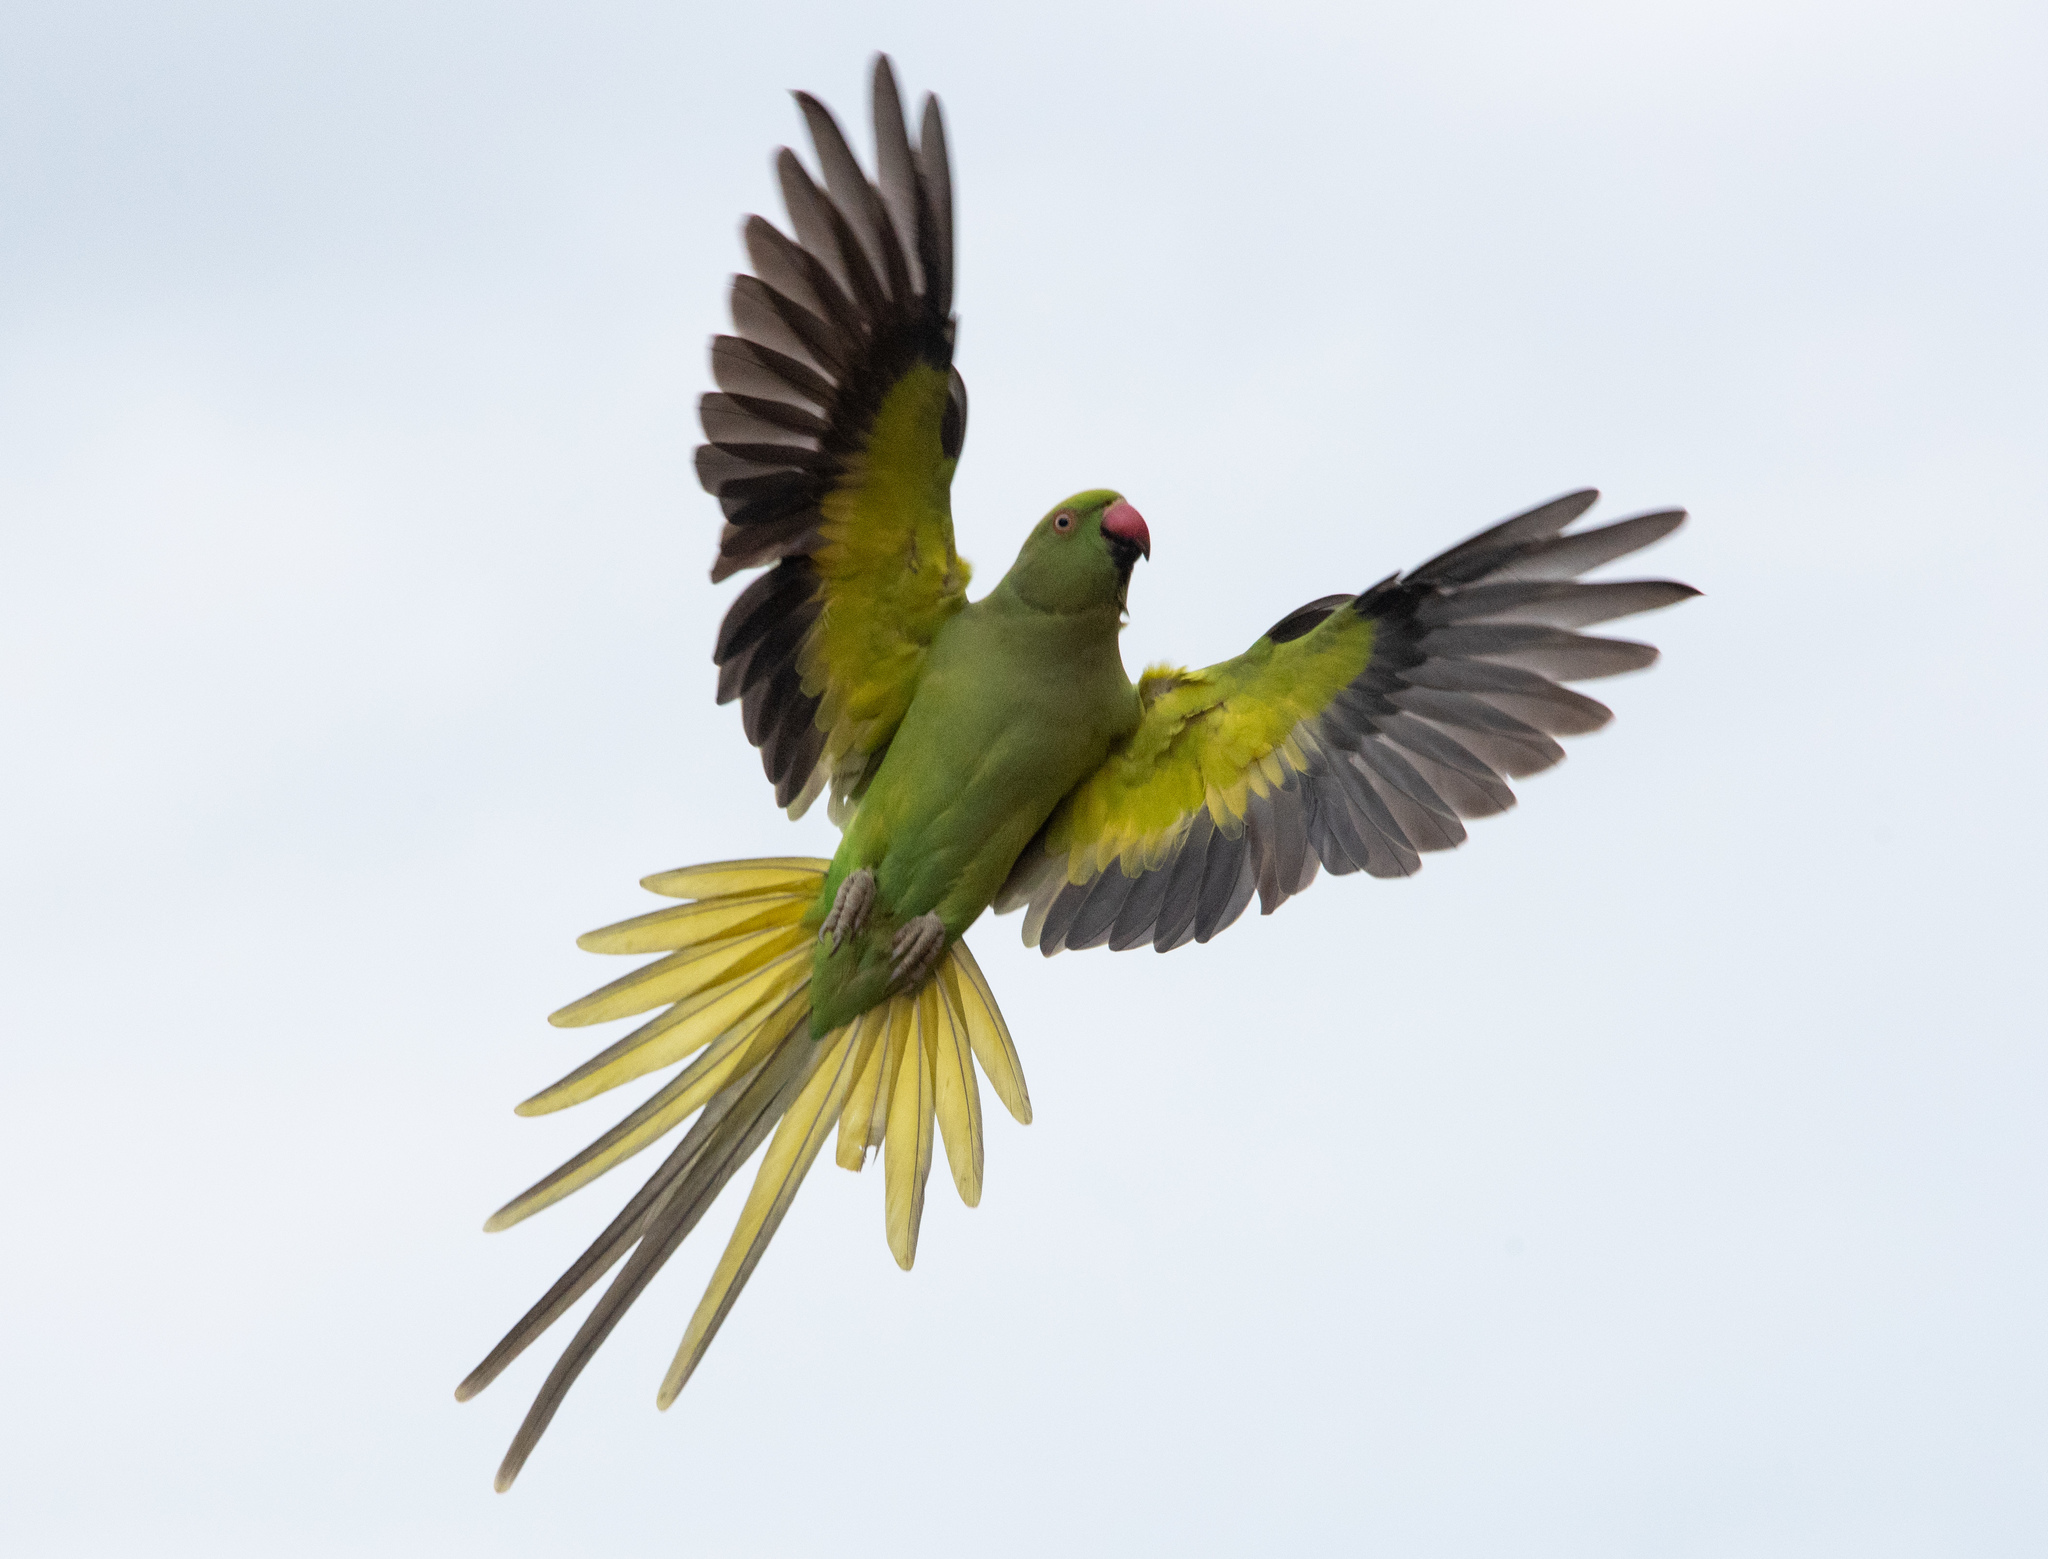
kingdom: Animalia
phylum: Chordata
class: Aves
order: Psittaciformes
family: Psittacidae
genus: Psittacula
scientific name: Psittacula krameri
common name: Rose-ringed parakeet
